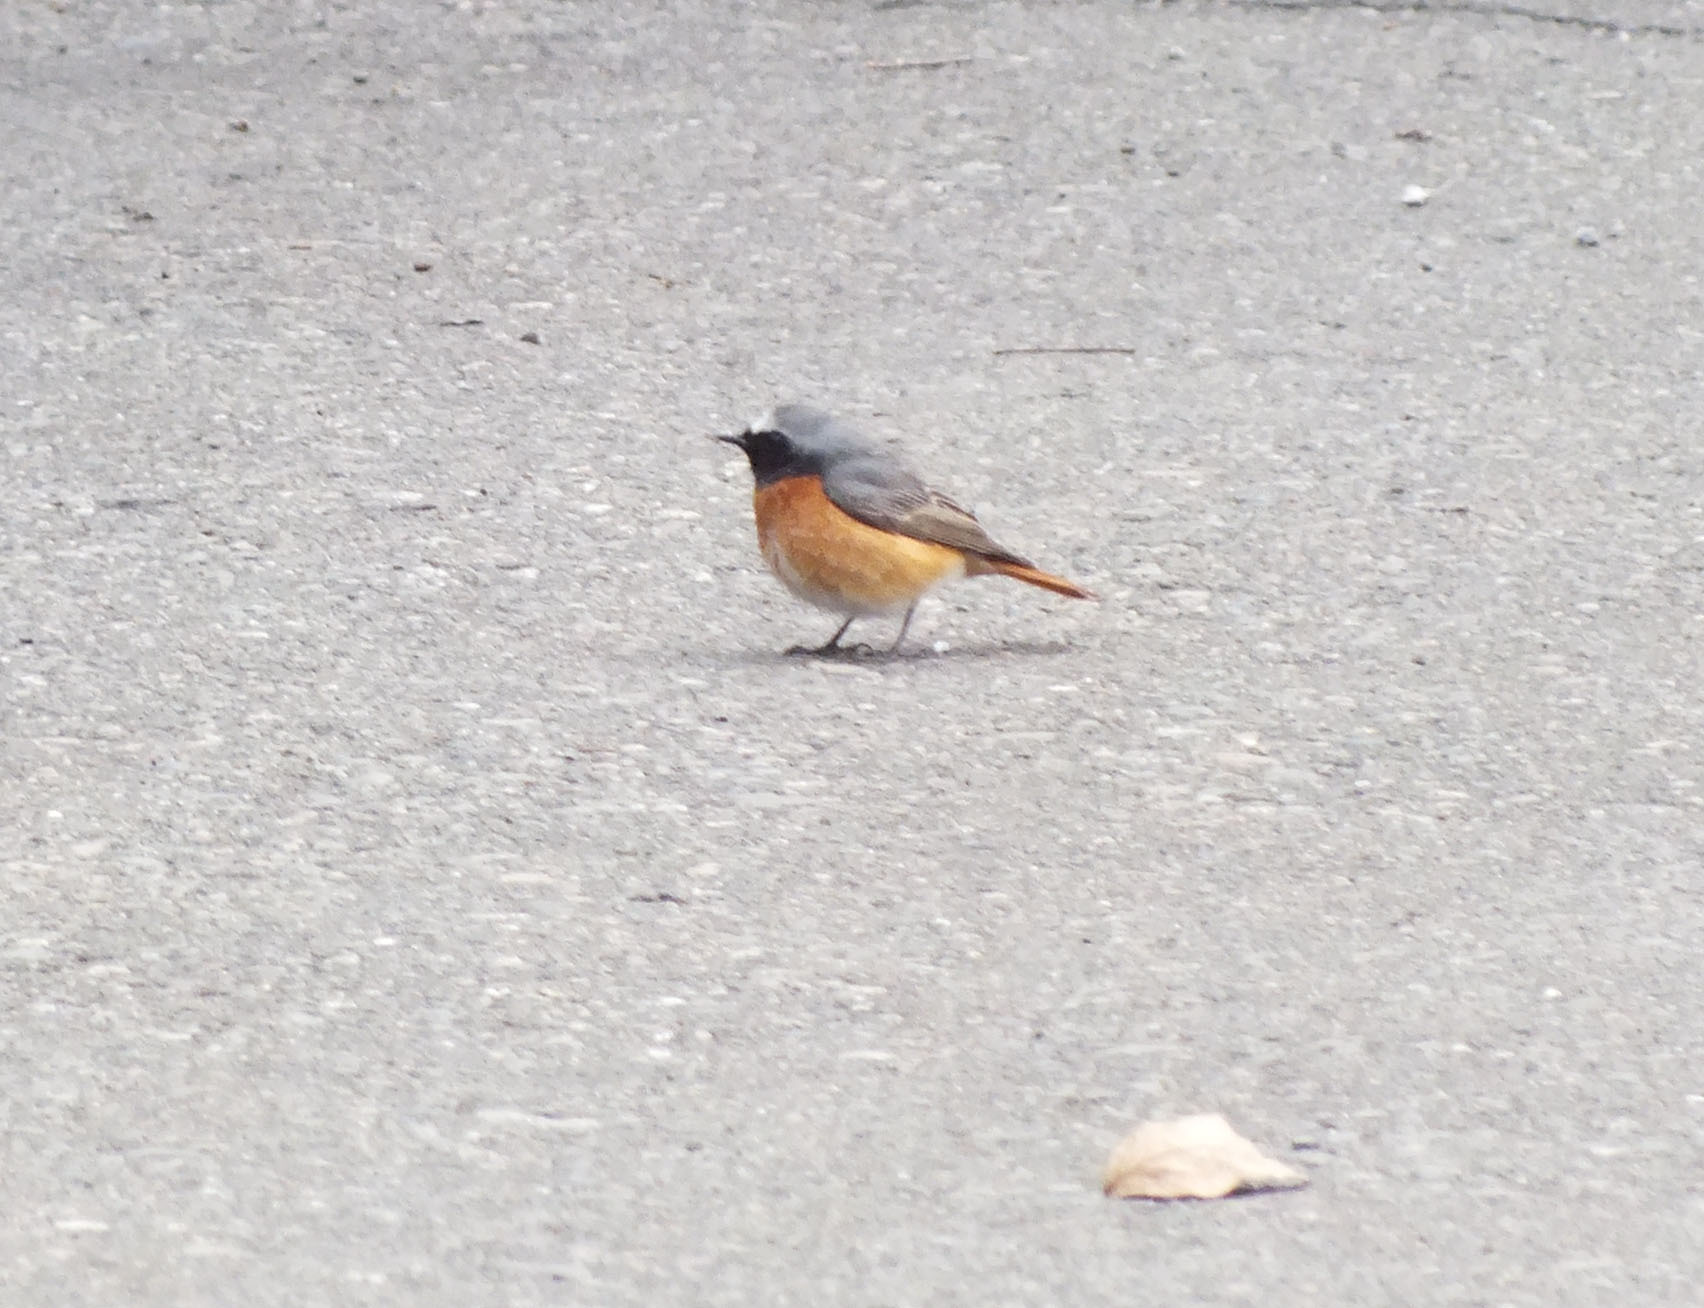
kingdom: Animalia
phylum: Chordata
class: Aves
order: Passeriformes
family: Muscicapidae
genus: Phoenicurus
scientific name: Phoenicurus phoenicurus
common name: Common redstart
